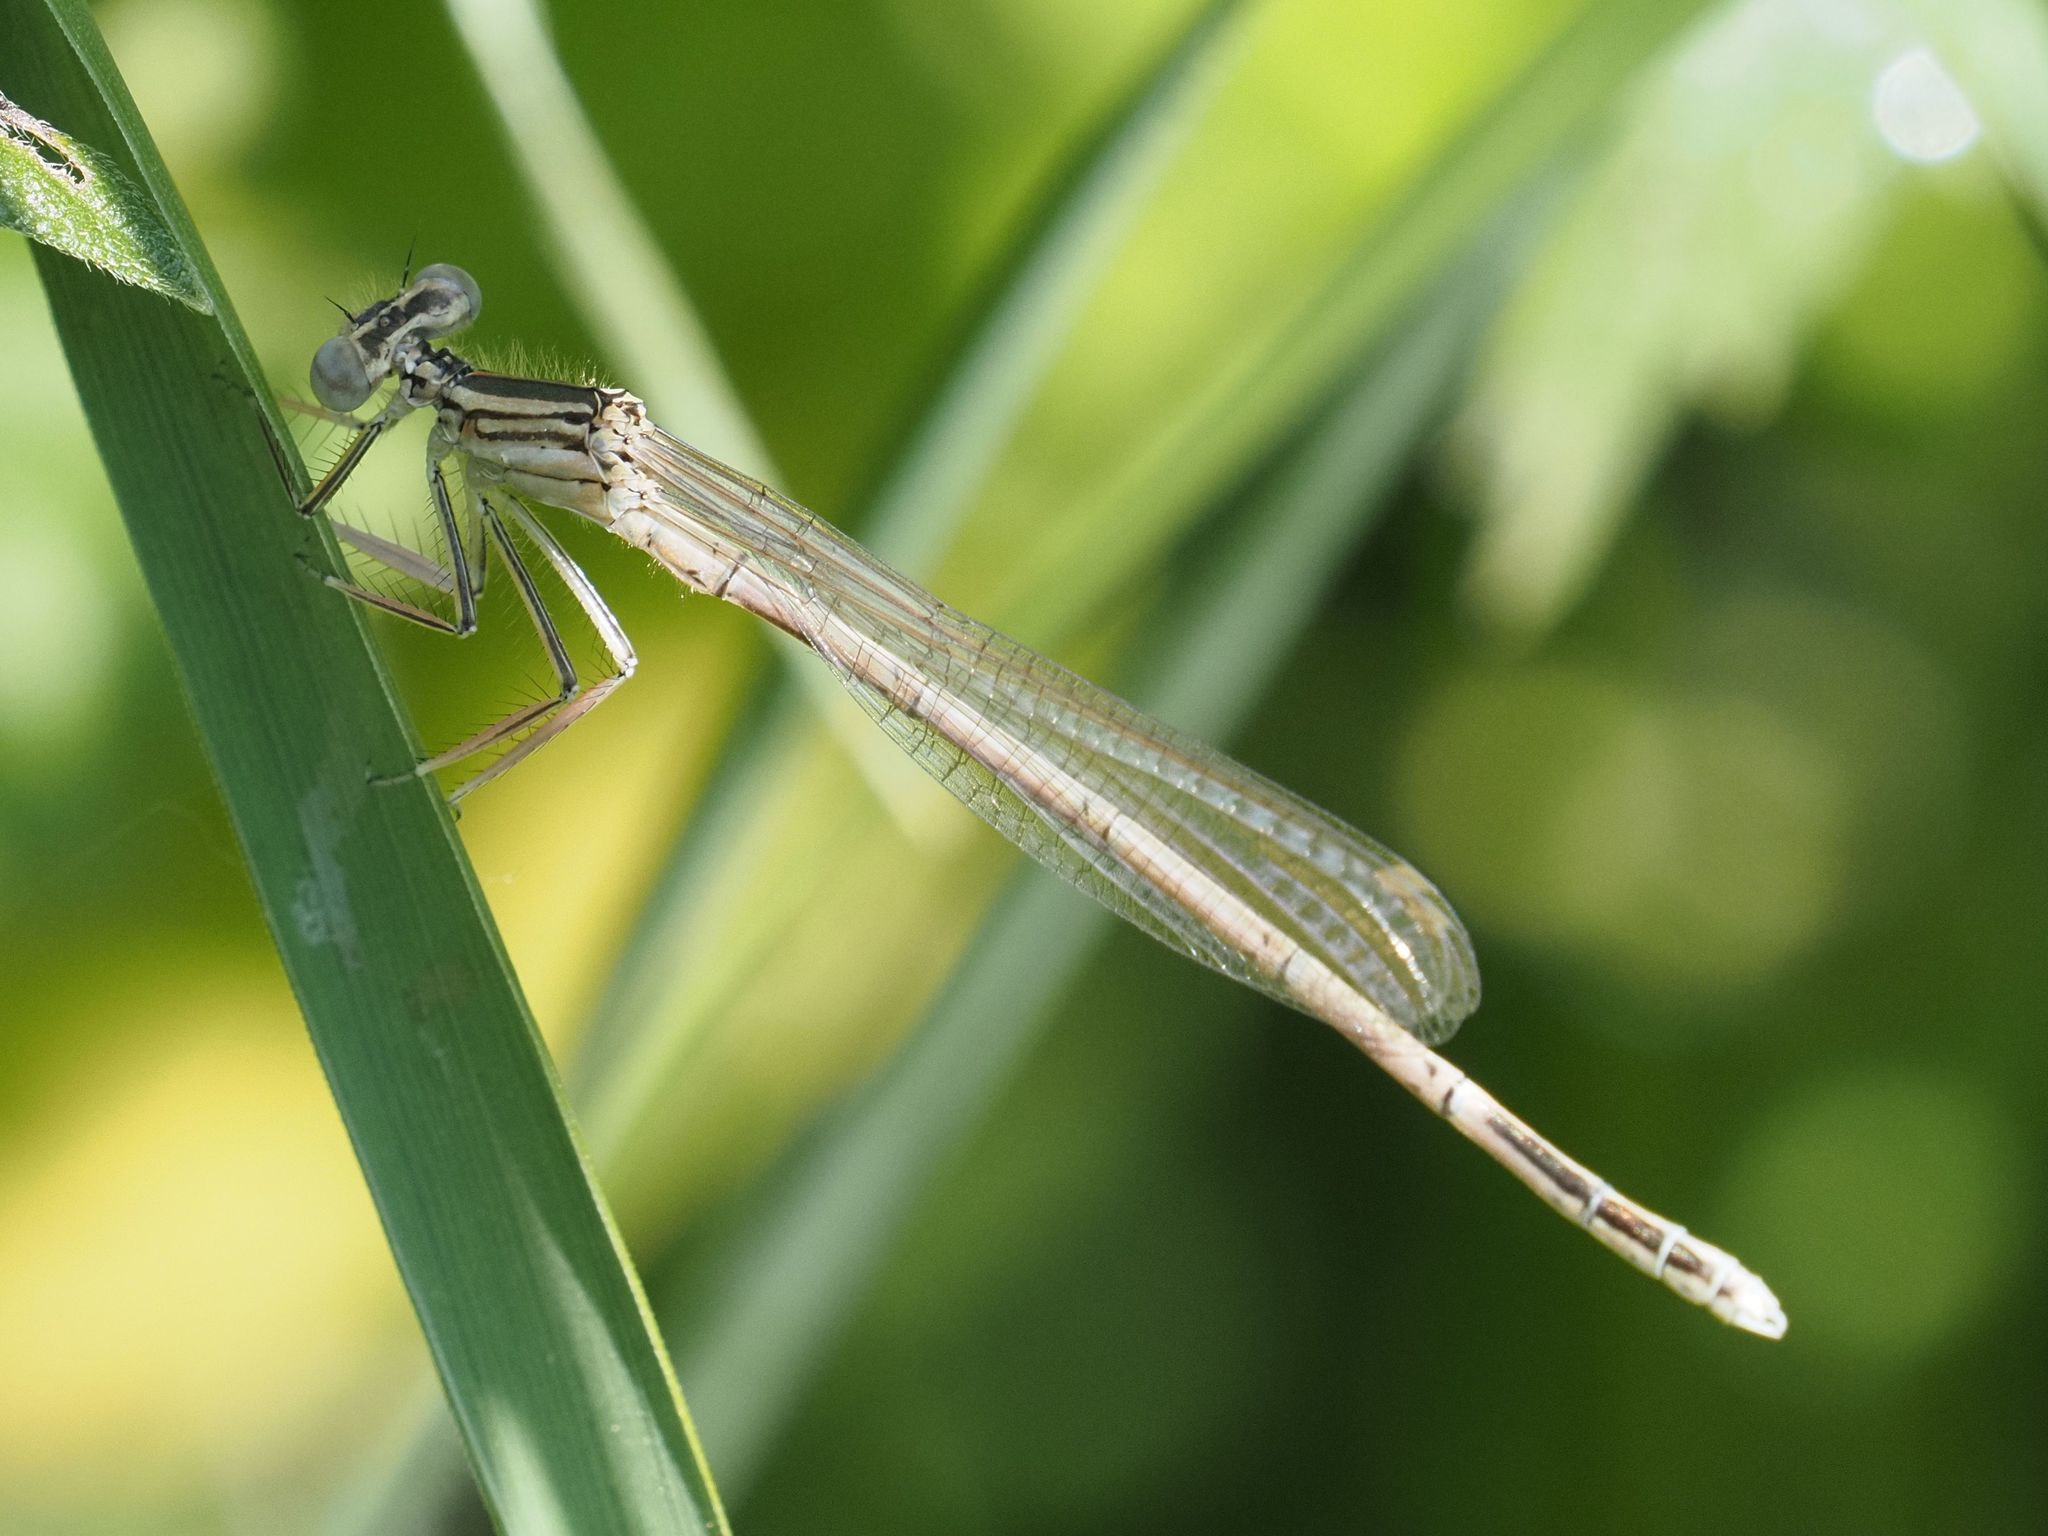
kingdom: Animalia
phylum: Arthropoda
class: Insecta
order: Odonata
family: Platycnemididae
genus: Platycnemis
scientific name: Platycnemis pennipes
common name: White-legged damselfly
